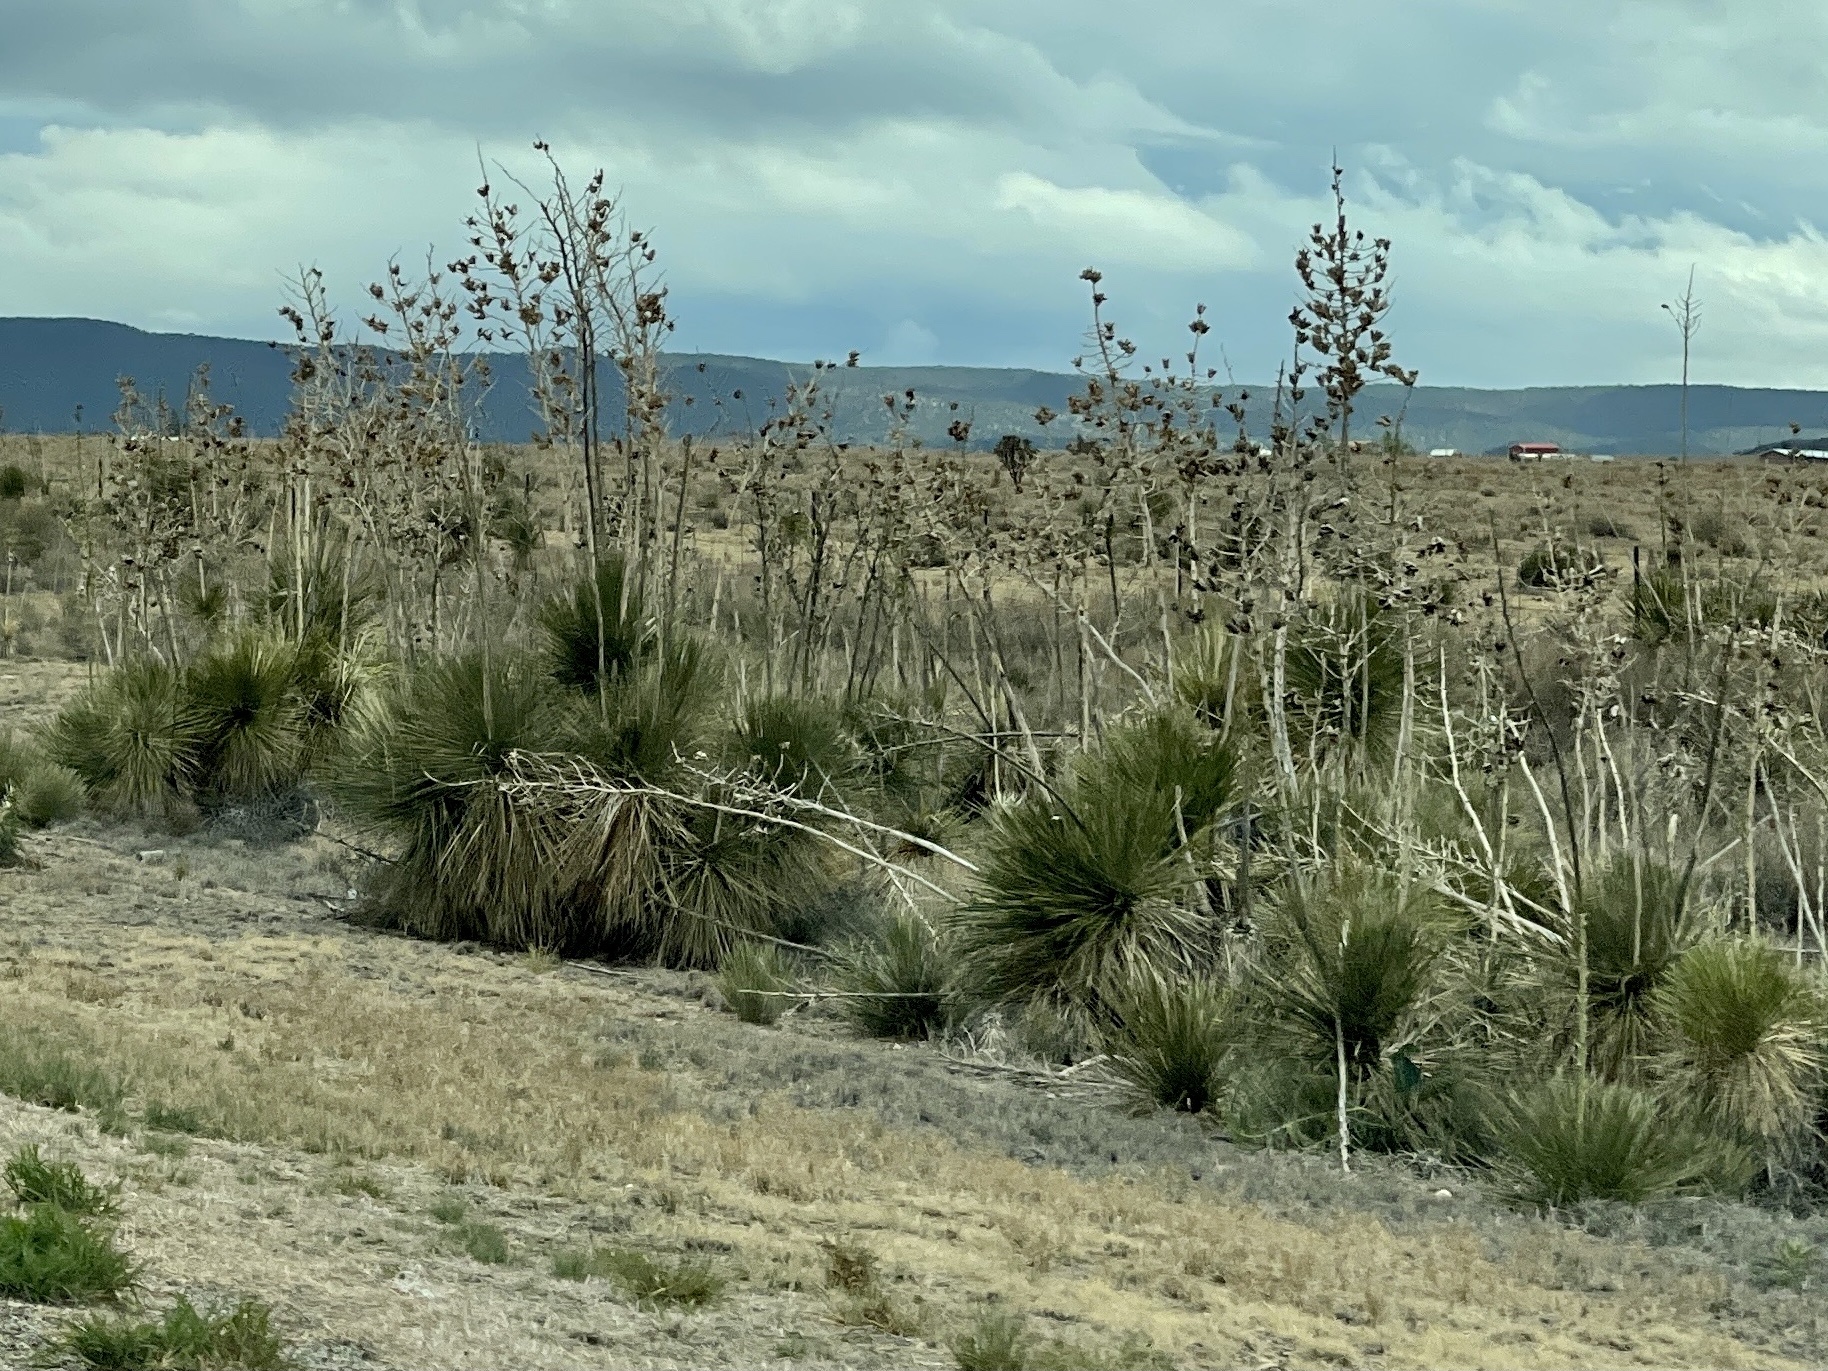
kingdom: Plantae
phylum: Tracheophyta
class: Liliopsida
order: Asparagales
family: Asparagaceae
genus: Yucca
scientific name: Yucca elata
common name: Palmella
